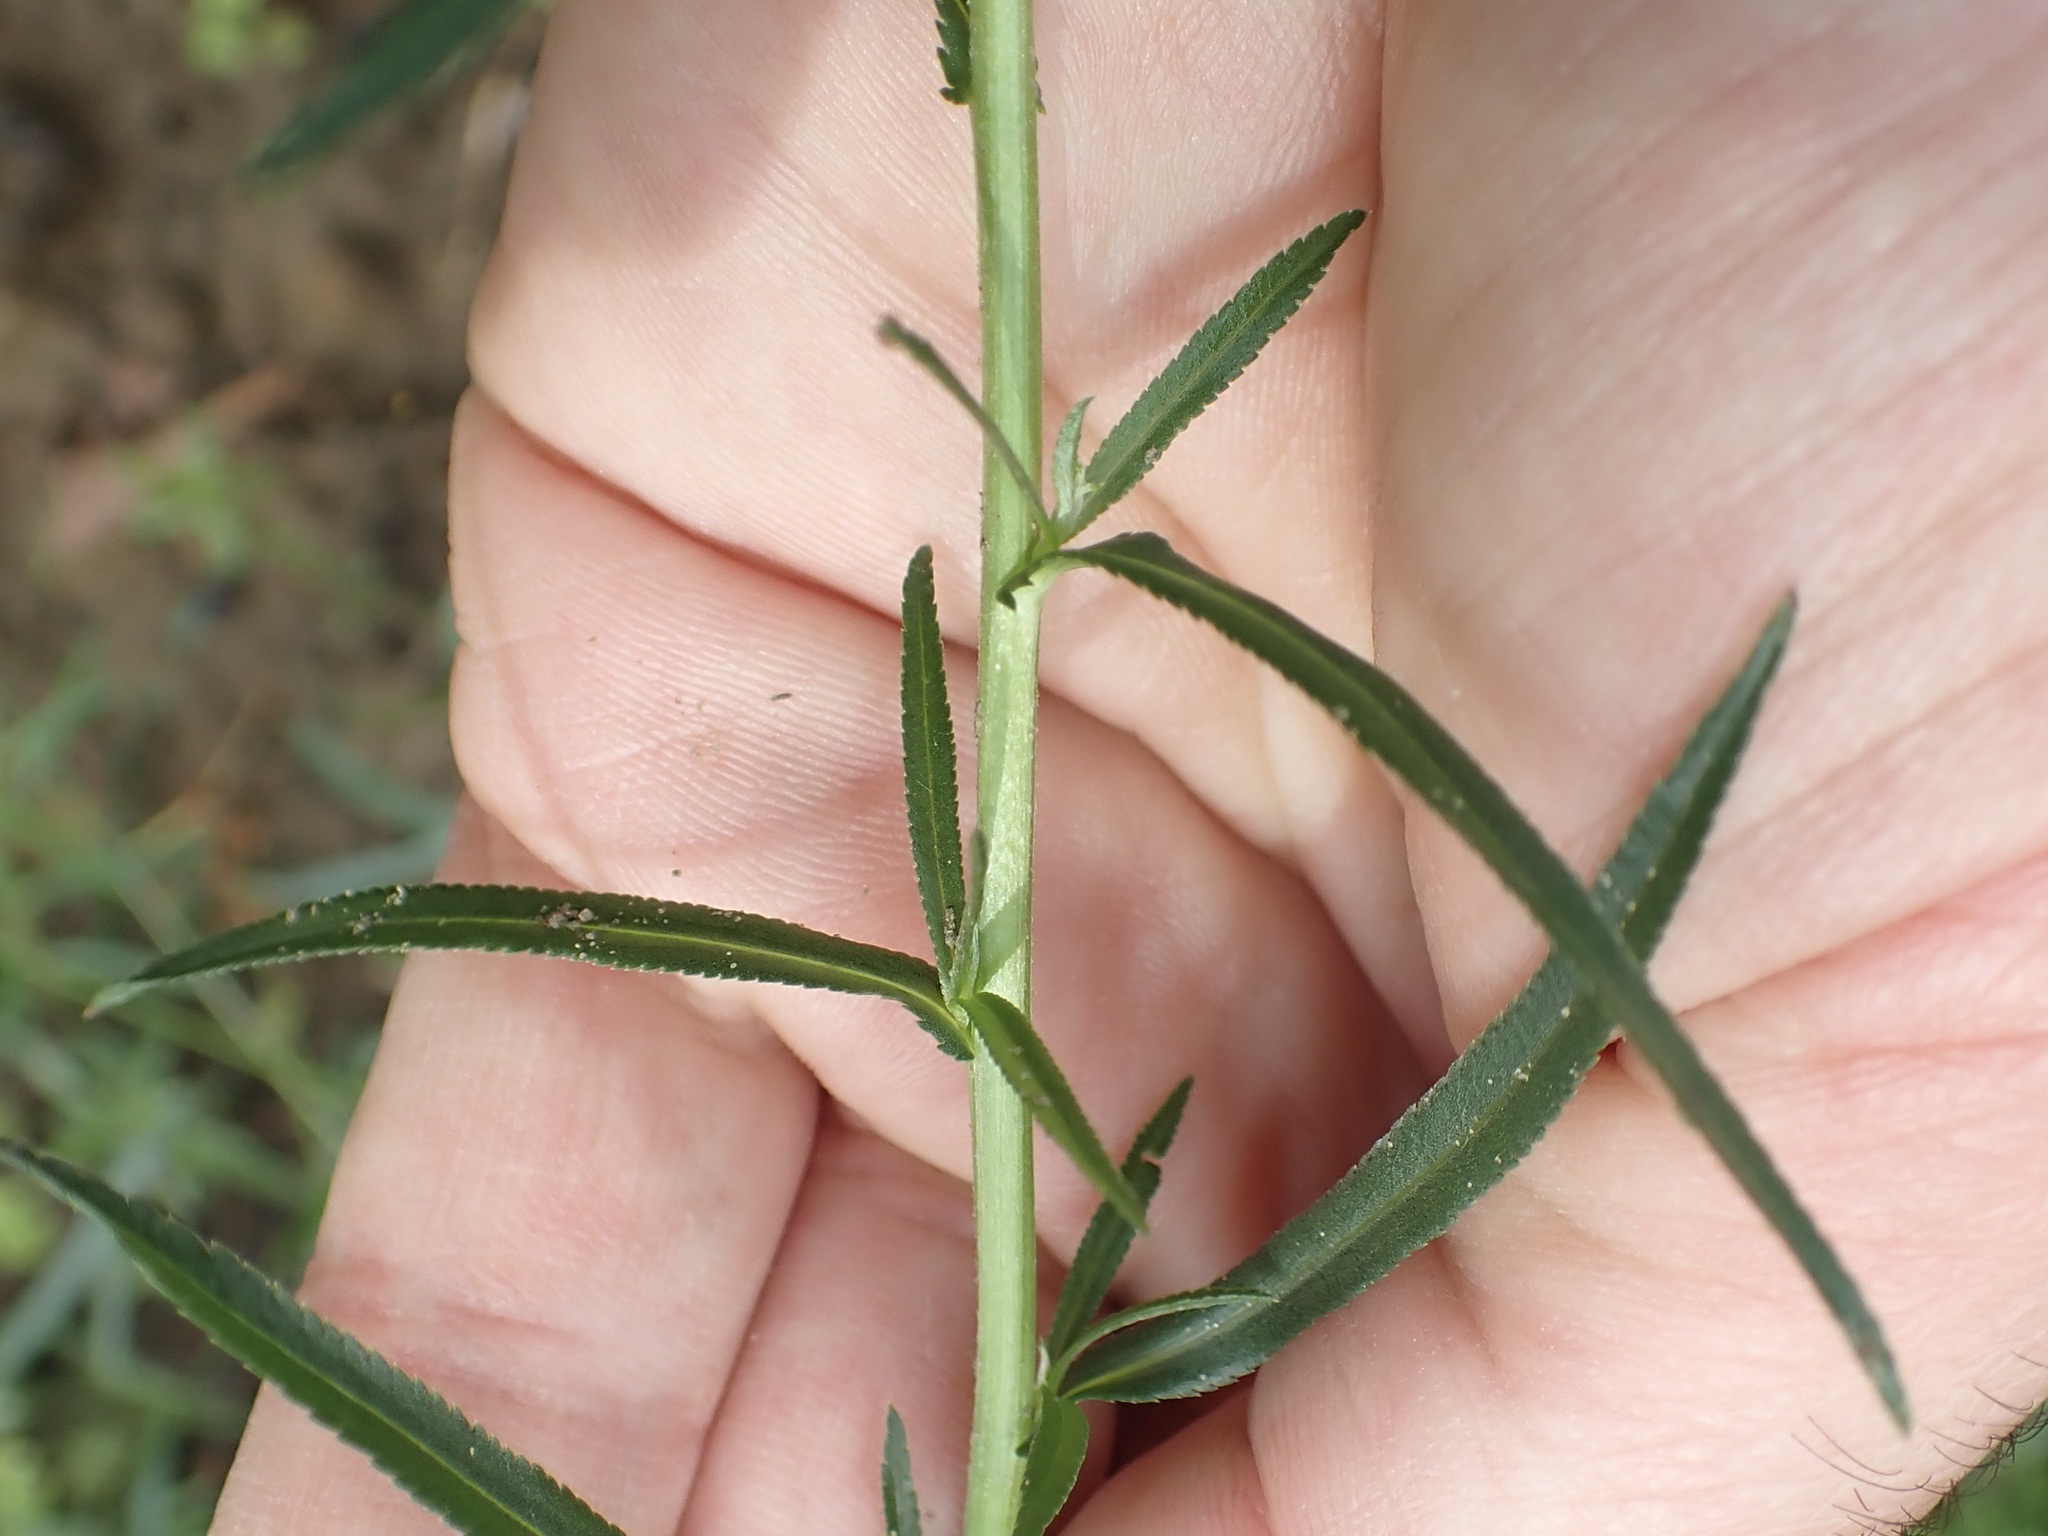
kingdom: Plantae
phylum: Tracheophyta
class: Magnoliopsida
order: Asterales
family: Asteraceae
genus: Achillea
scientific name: Achillea ptarmica
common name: Sneezeweed
